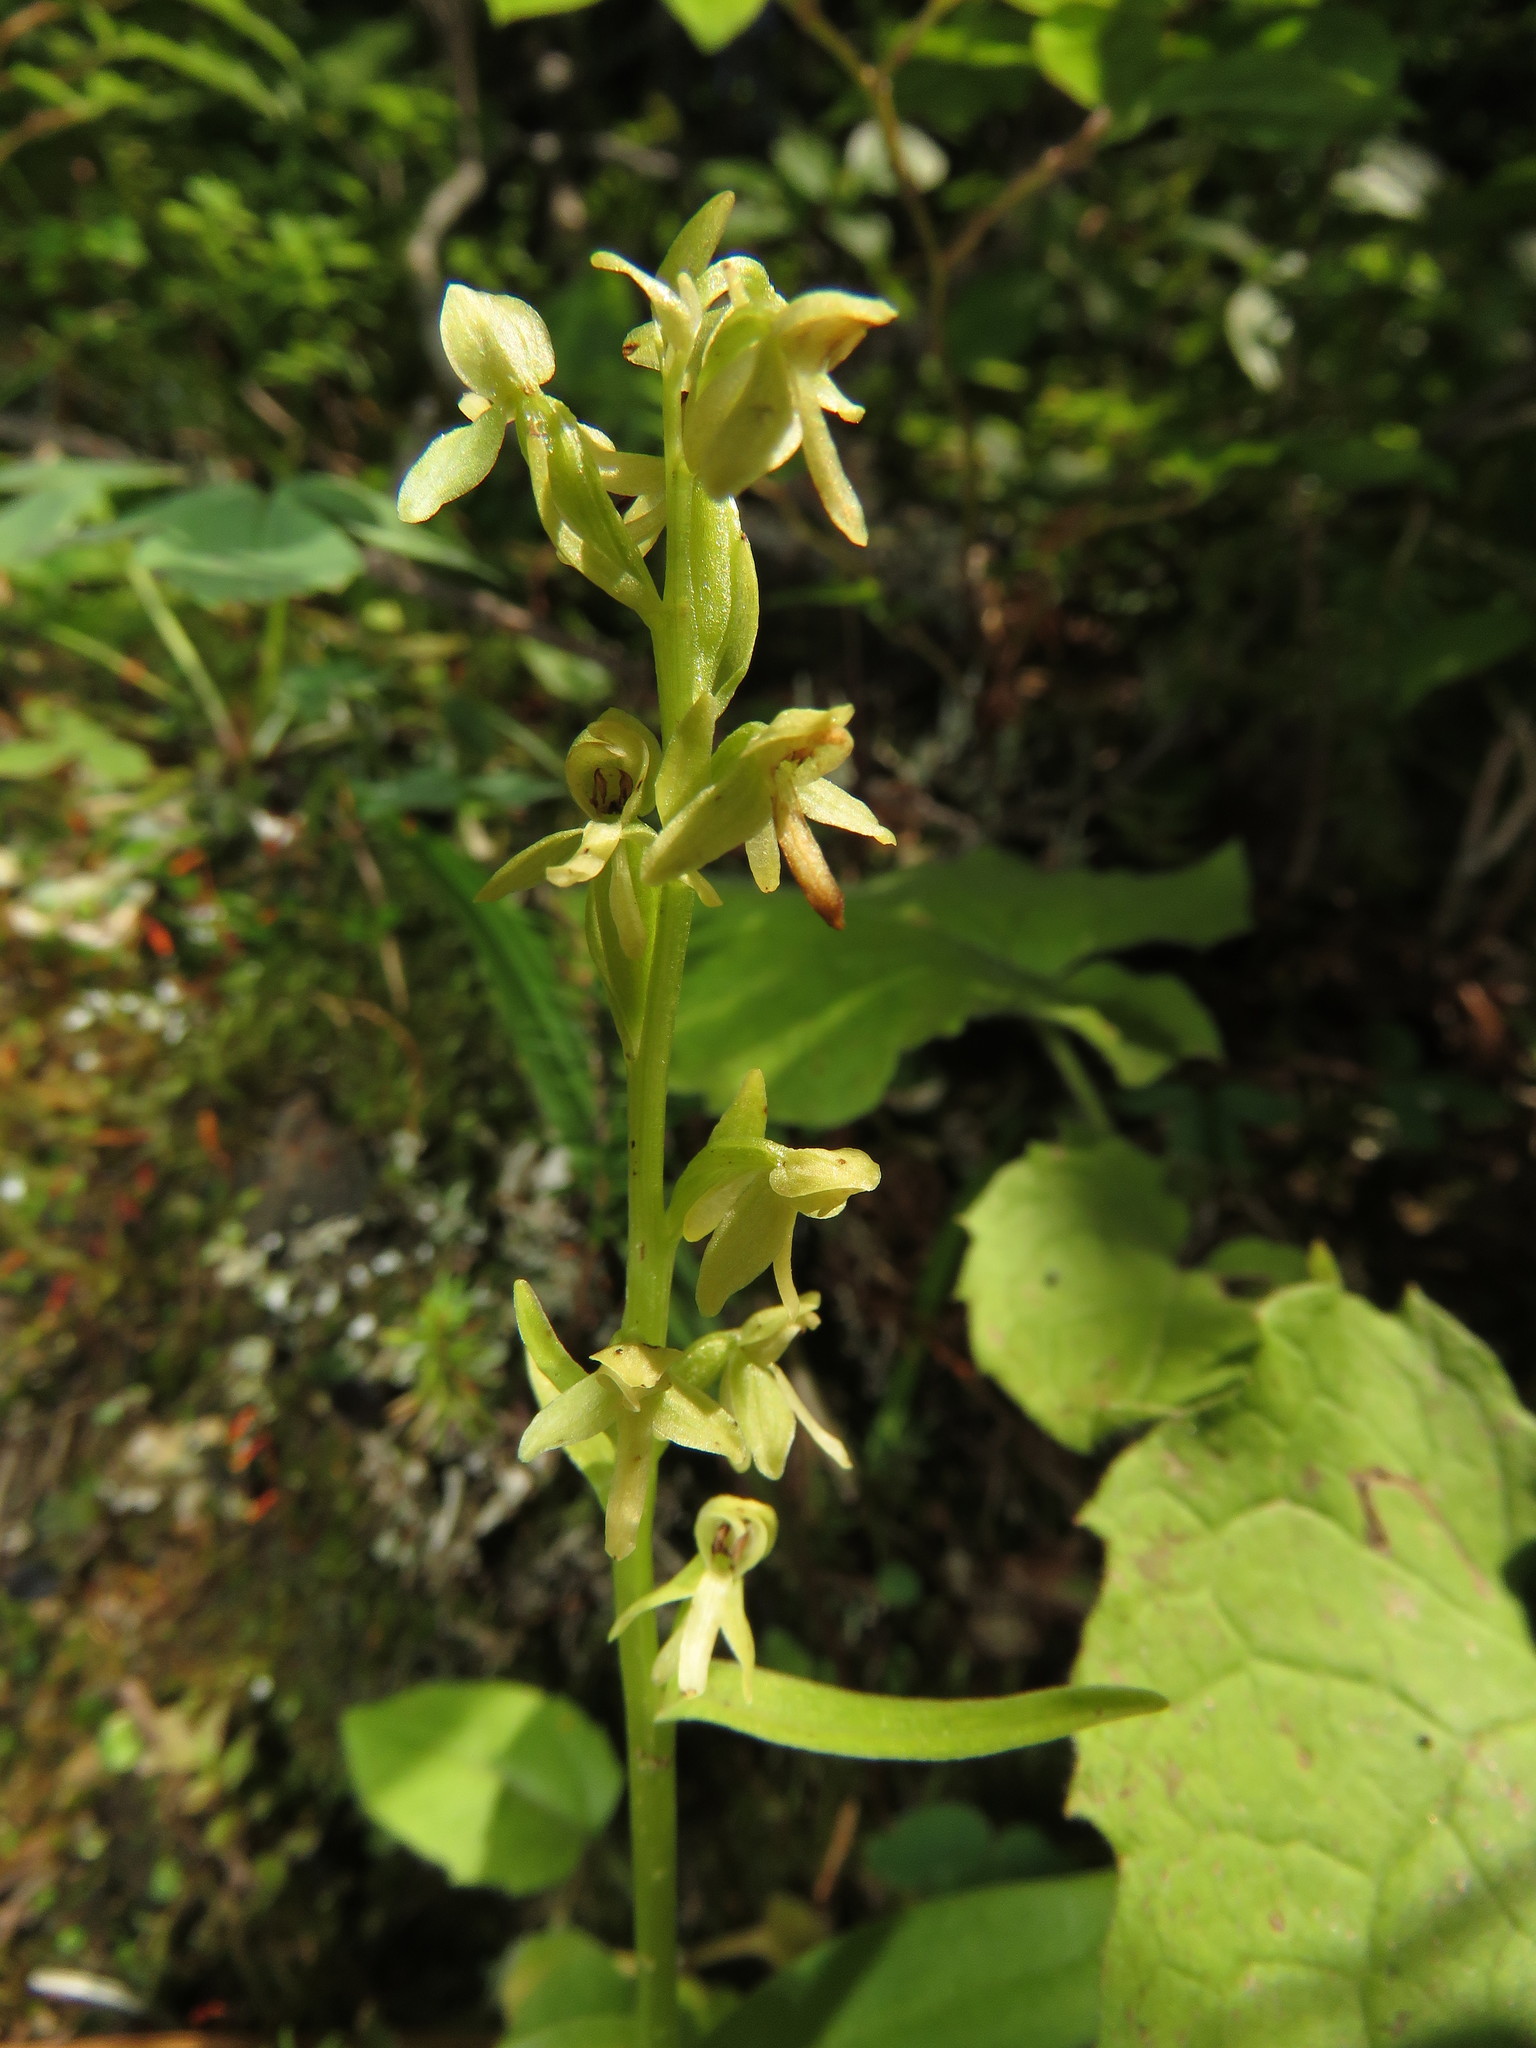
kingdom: Plantae
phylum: Tracheophyta
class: Liliopsida
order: Asparagales
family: Orchidaceae
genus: Platanthera
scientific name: Platanthera stricta
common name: Slender bog orchid
